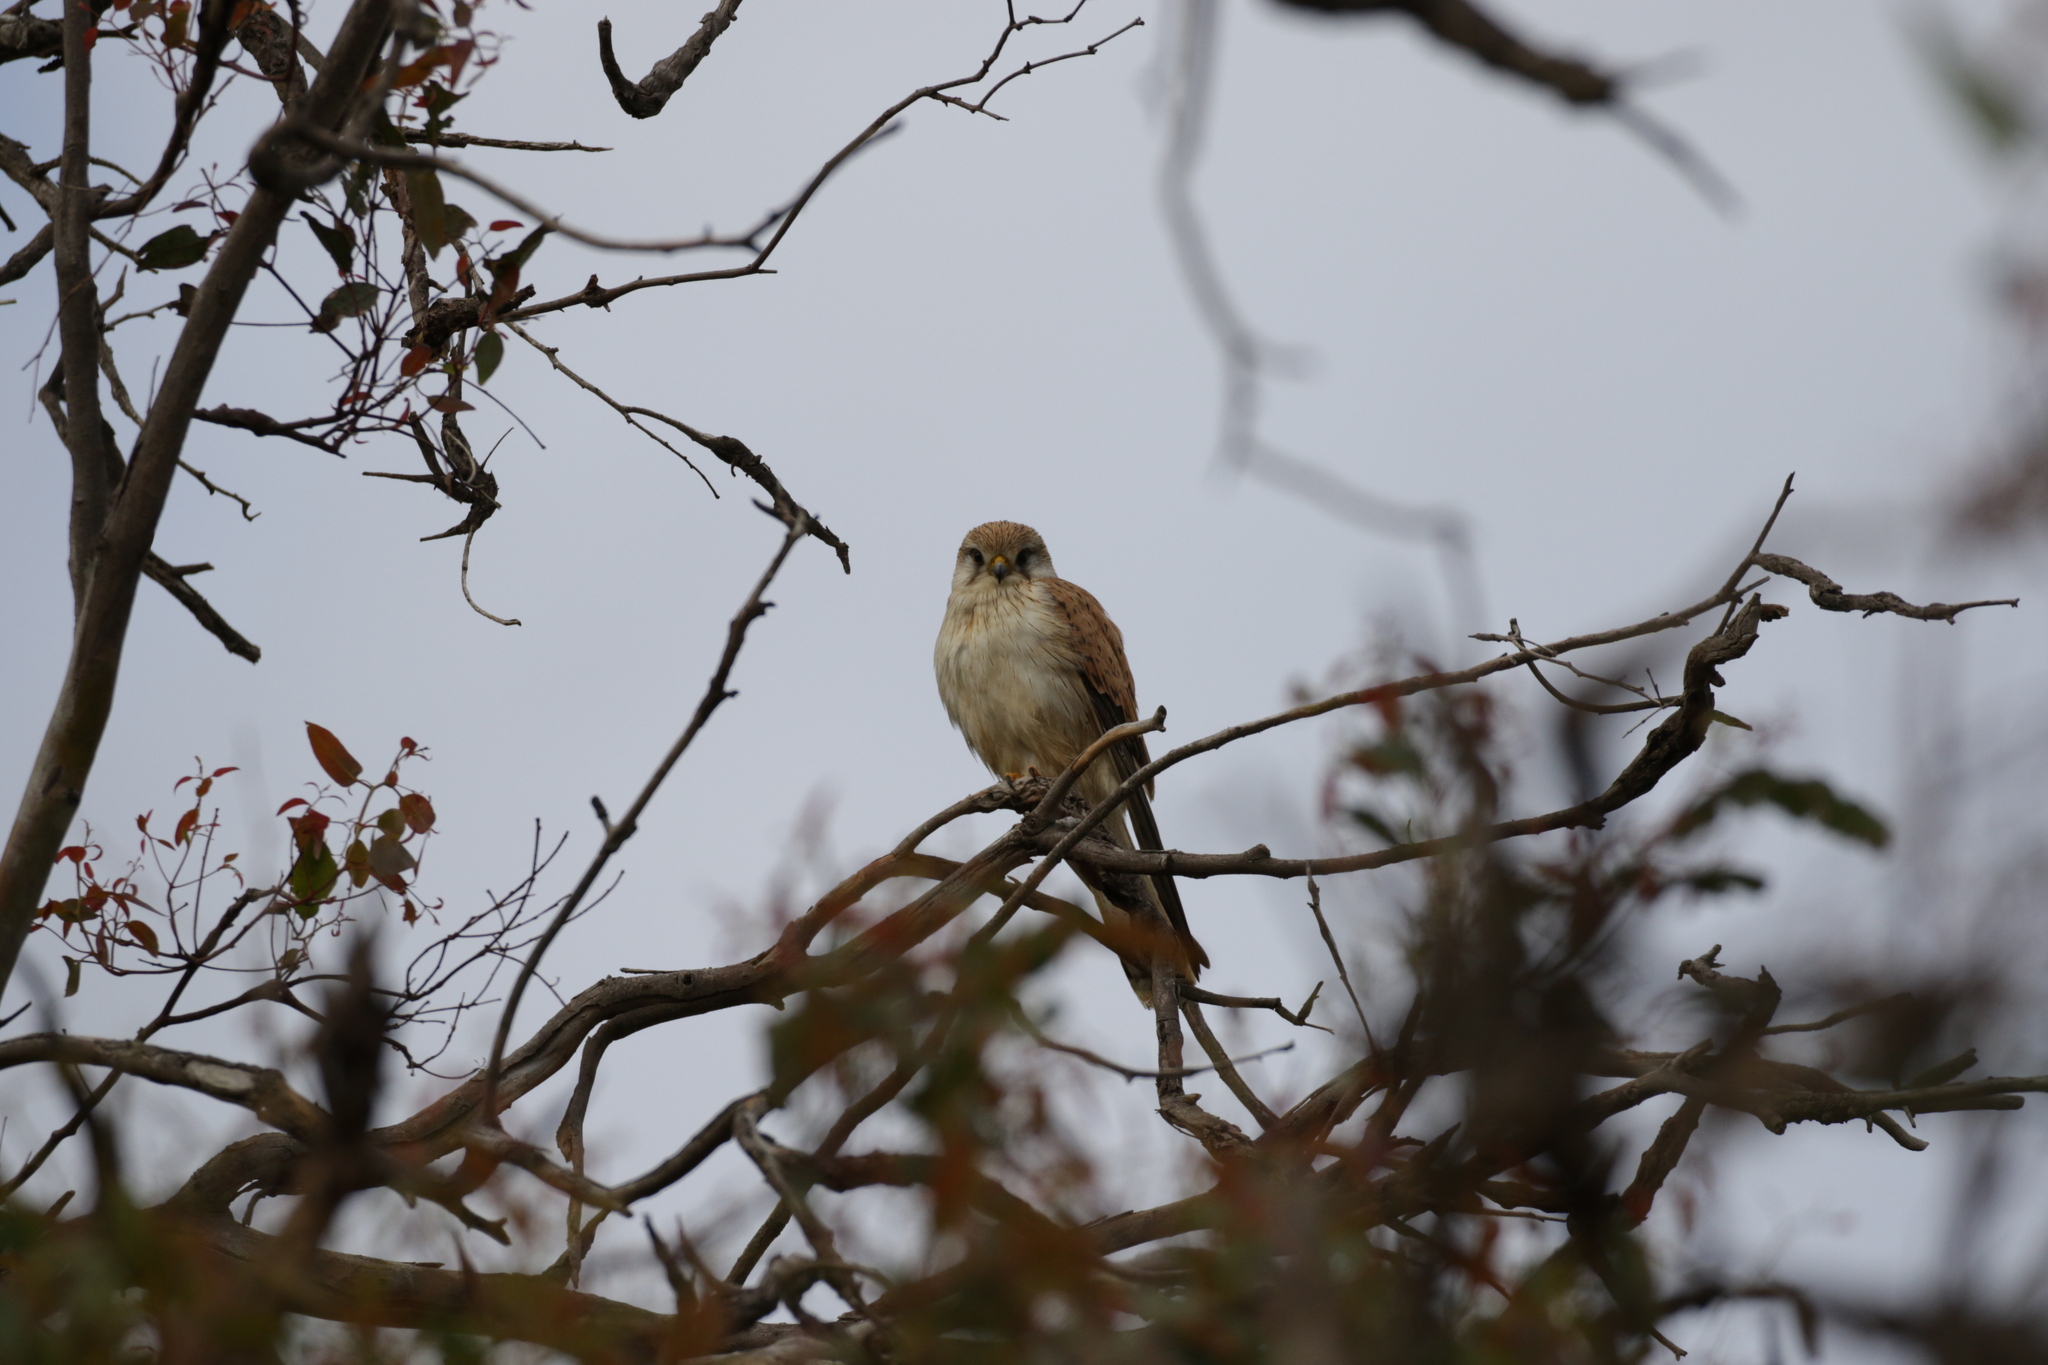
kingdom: Animalia
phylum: Chordata
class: Aves
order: Falconiformes
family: Falconidae
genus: Falco
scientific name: Falco cenchroides
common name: Nankeen kestrel
